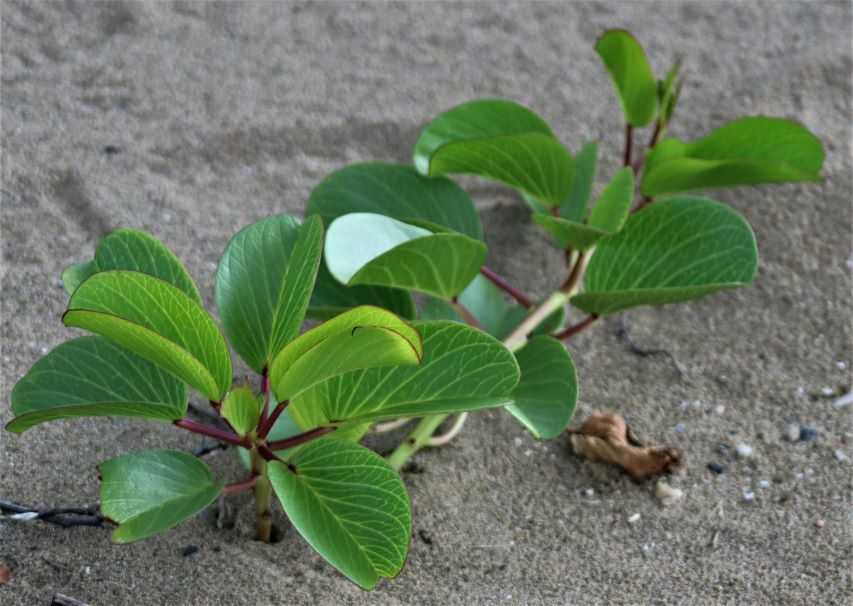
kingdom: Plantae
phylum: Tracheophyta
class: Magnoliopsida
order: Solanales
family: Convolvulaceae
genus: Ipomoea
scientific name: Ipomoea pes-caprae
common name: Beach morning glory
